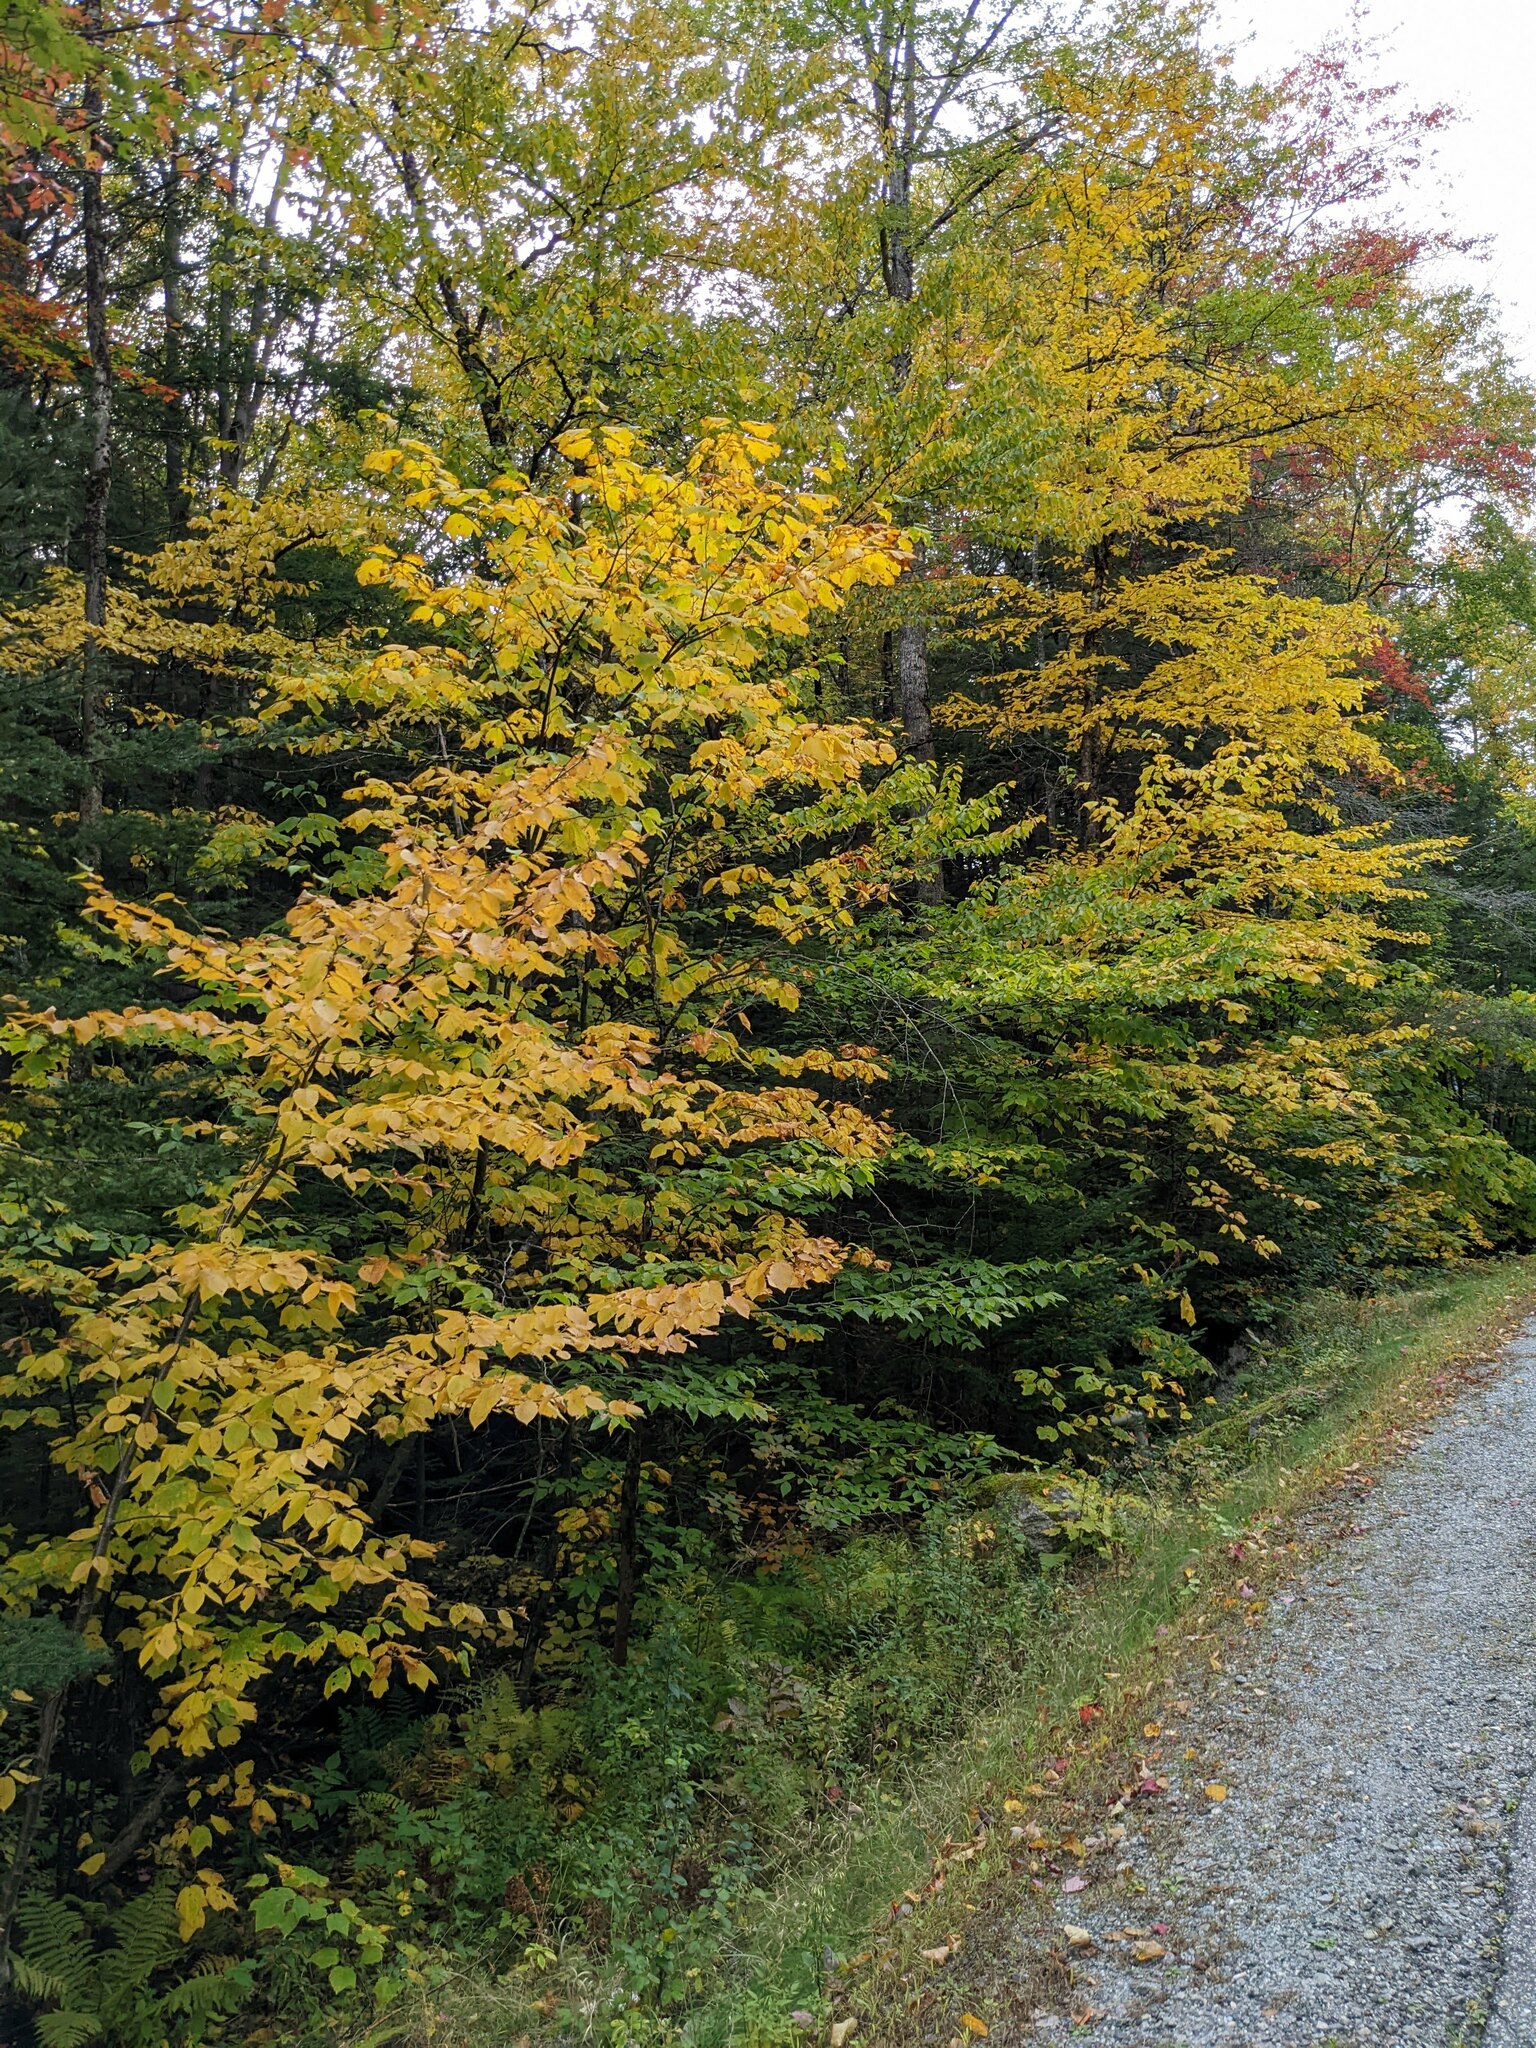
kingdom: Plantae
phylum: Tracheophyta
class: Magnoliopsida
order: Fagales
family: Fagaceae
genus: Fagus
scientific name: Fagus grandifolia
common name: American beech
